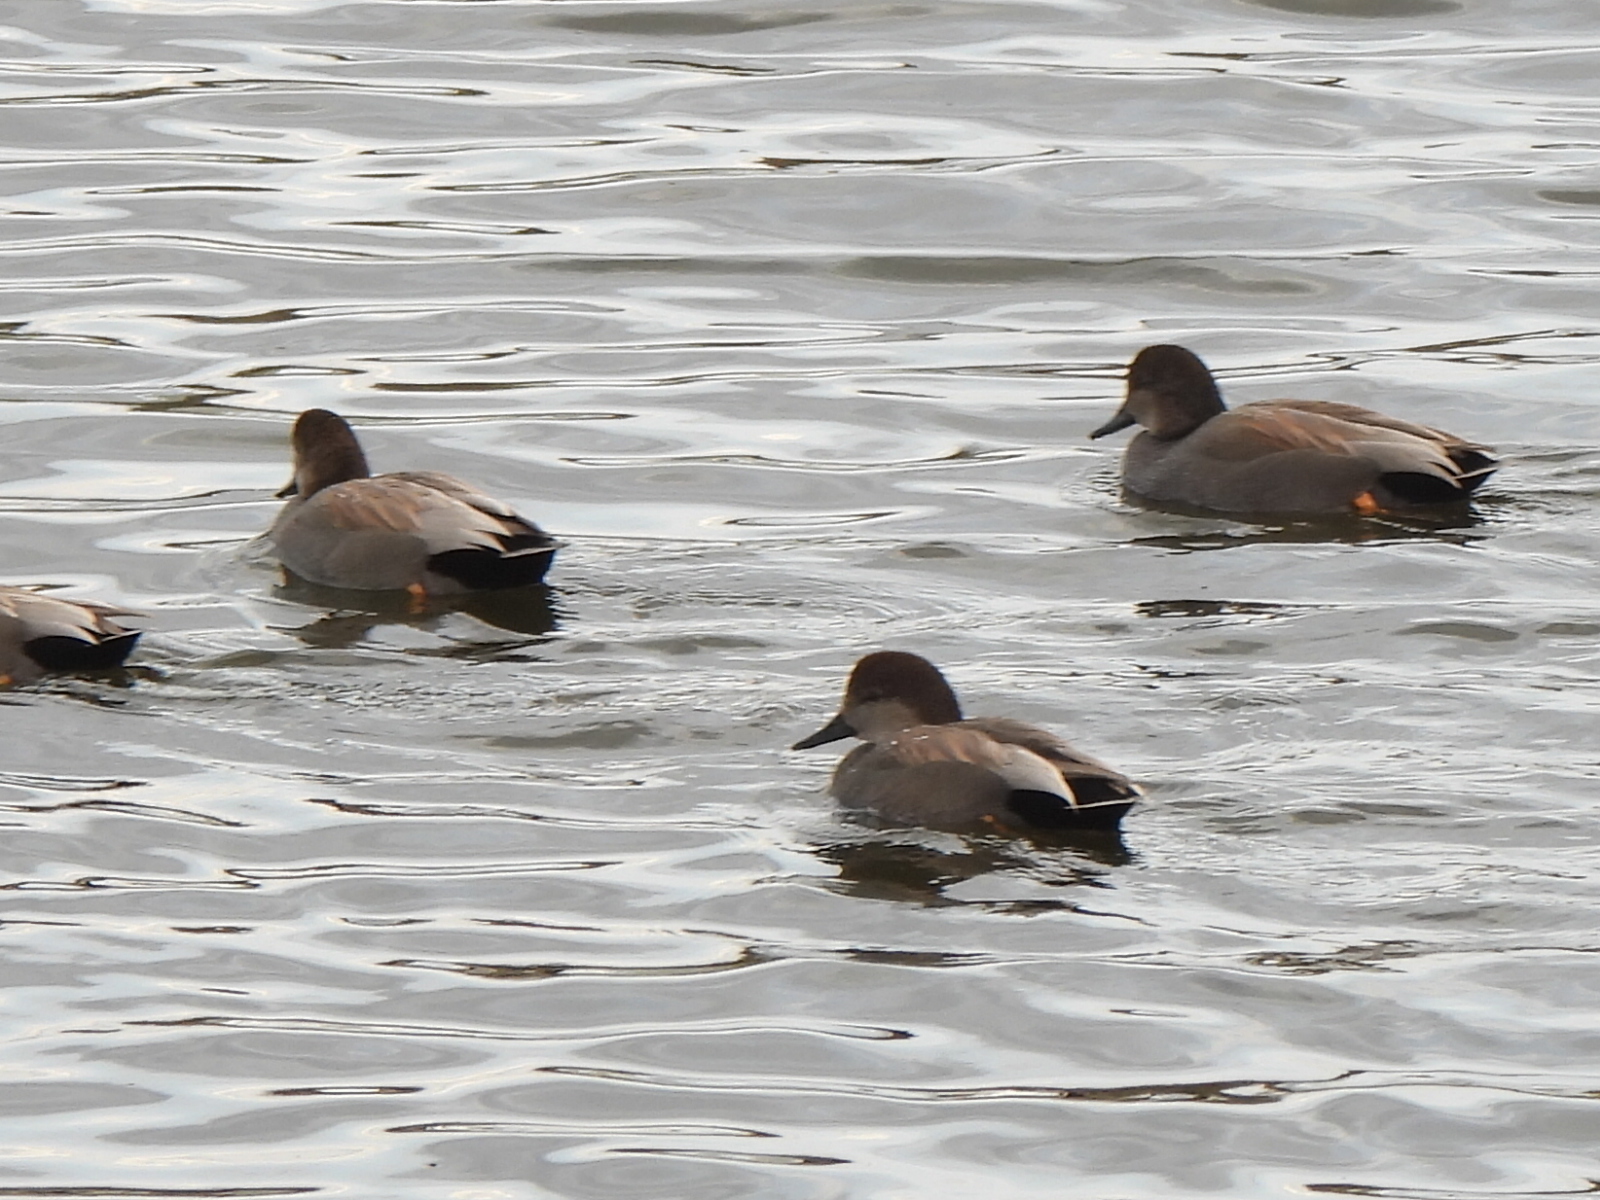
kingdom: Animalia
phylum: Chordata
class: Aves
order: Anseriformes
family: Anatidae
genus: Mareca
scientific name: Mareca strepera
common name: Gadwall
